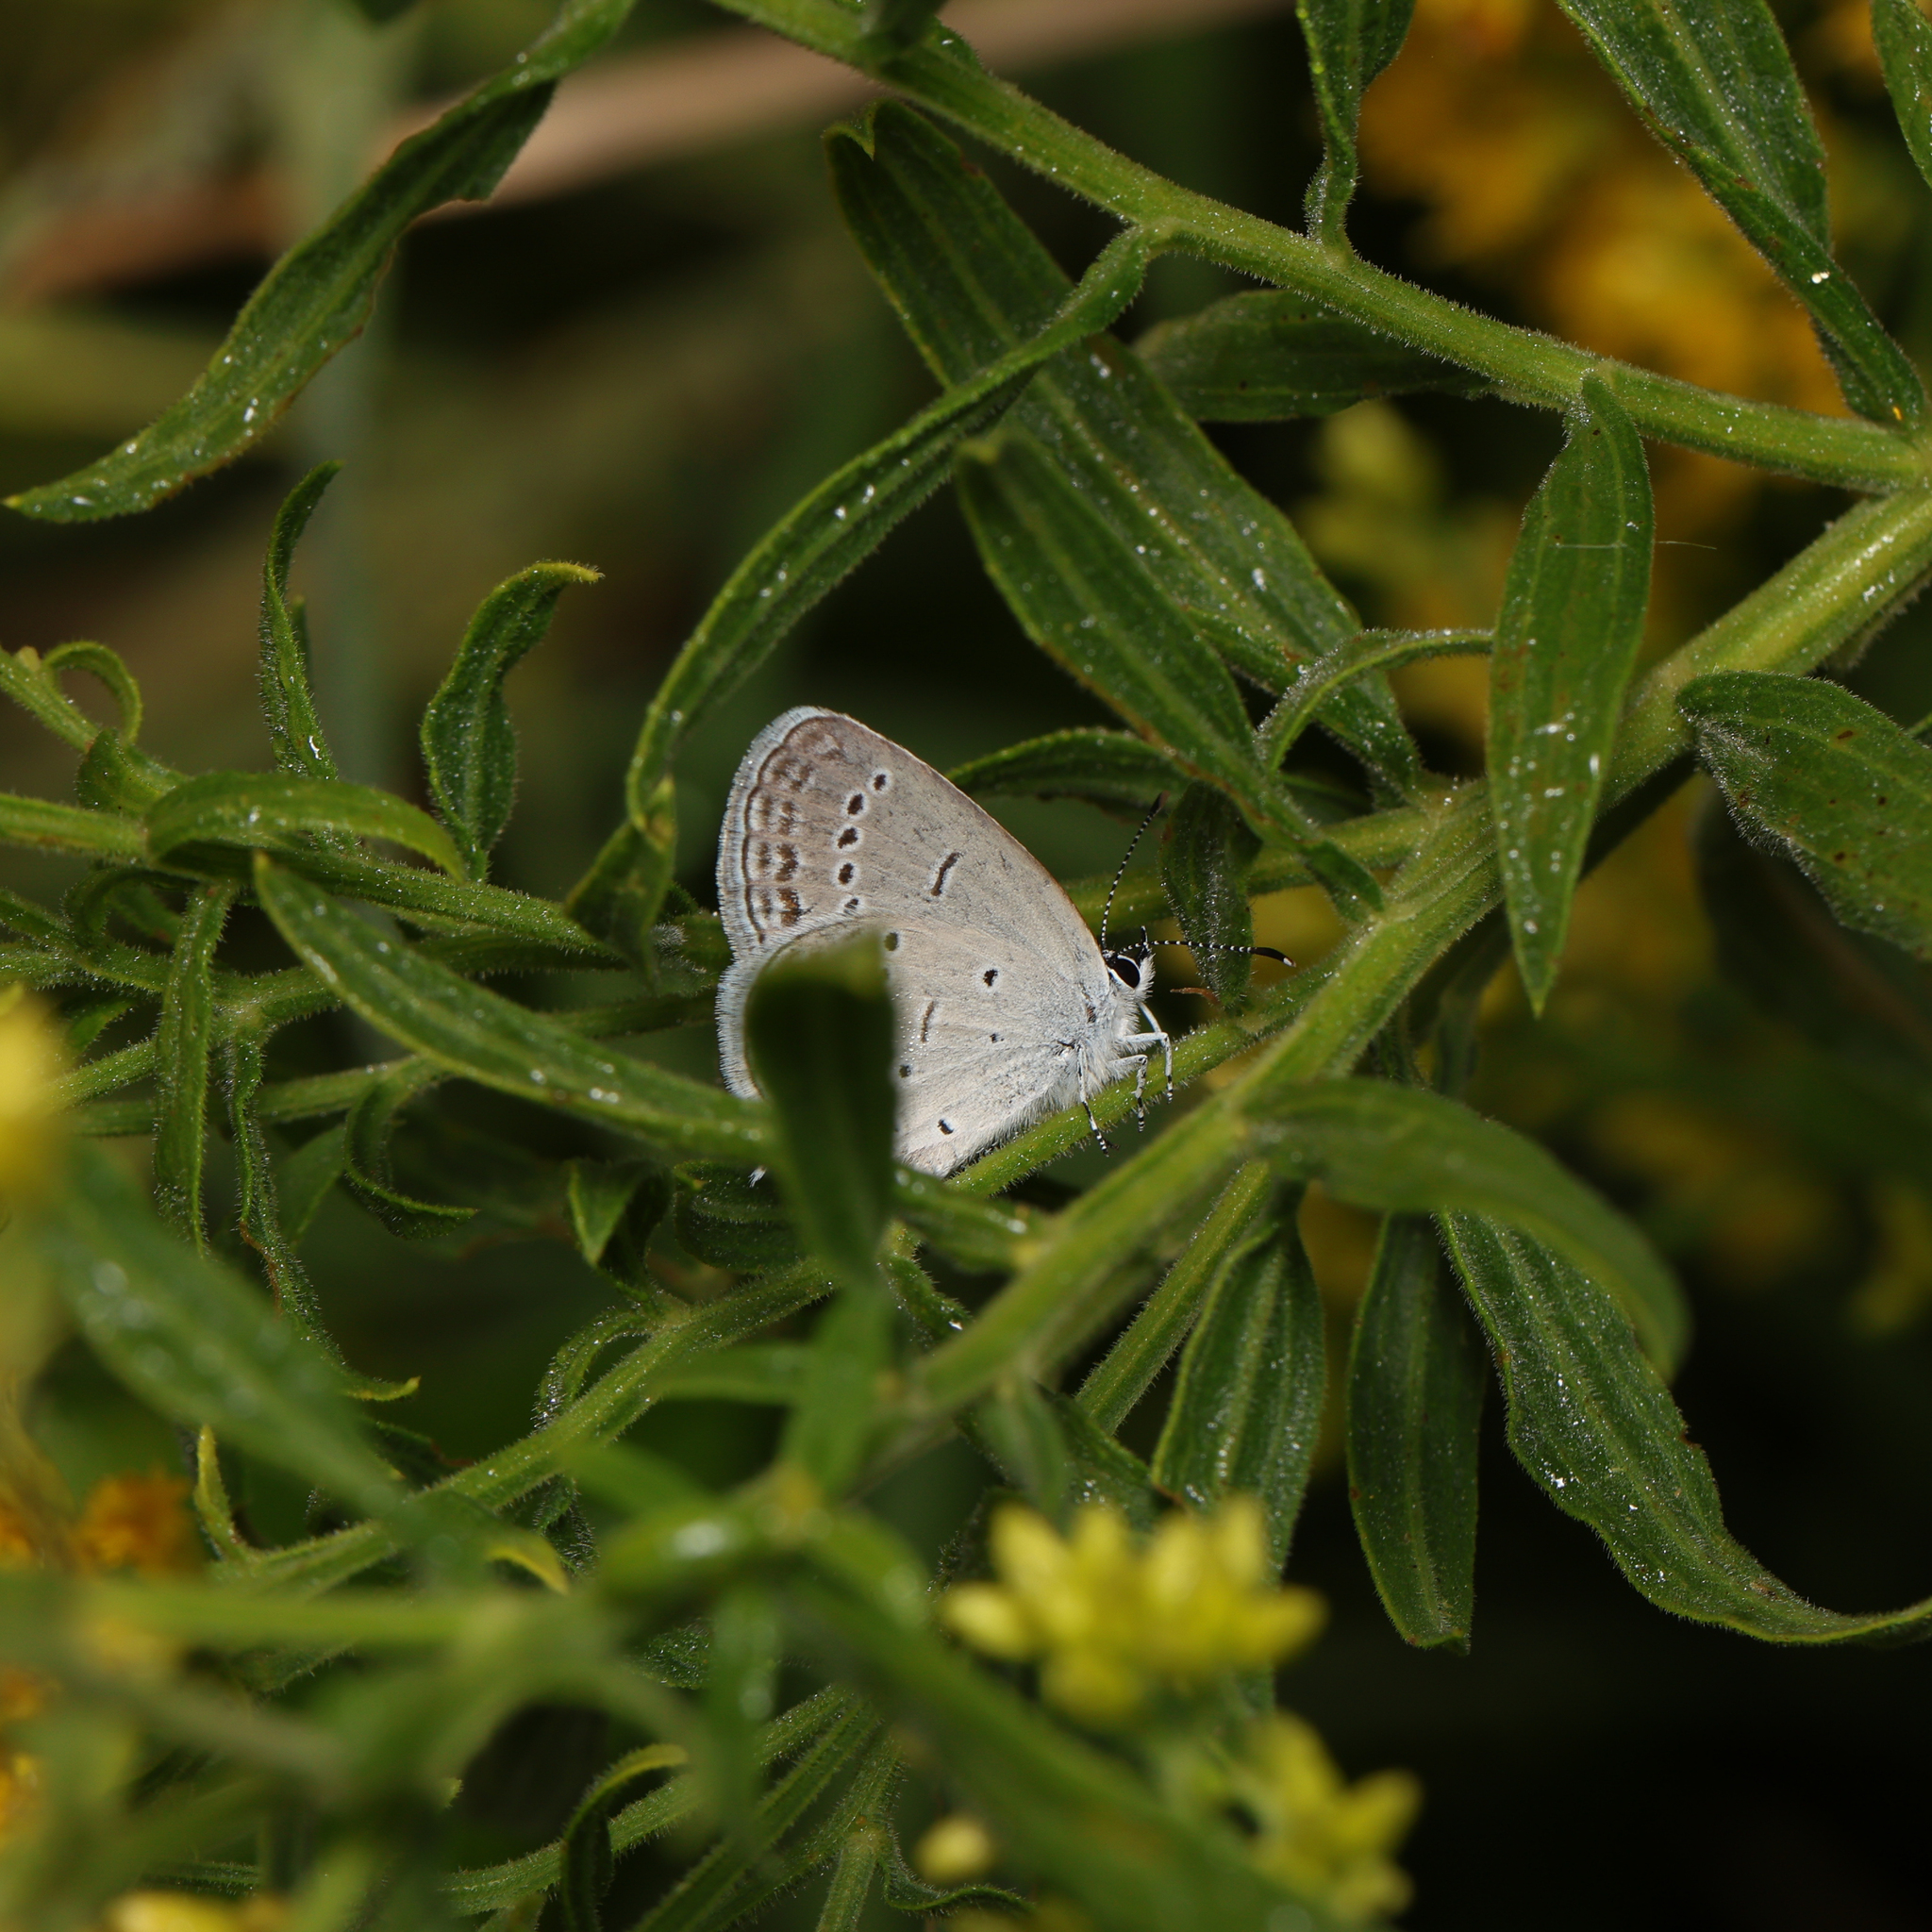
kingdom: Animalia
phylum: Arthropoda
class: Insecta
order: Lepidoptera
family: Lycaenidae
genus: Elkalyce
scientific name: Elkalyce comyntas
